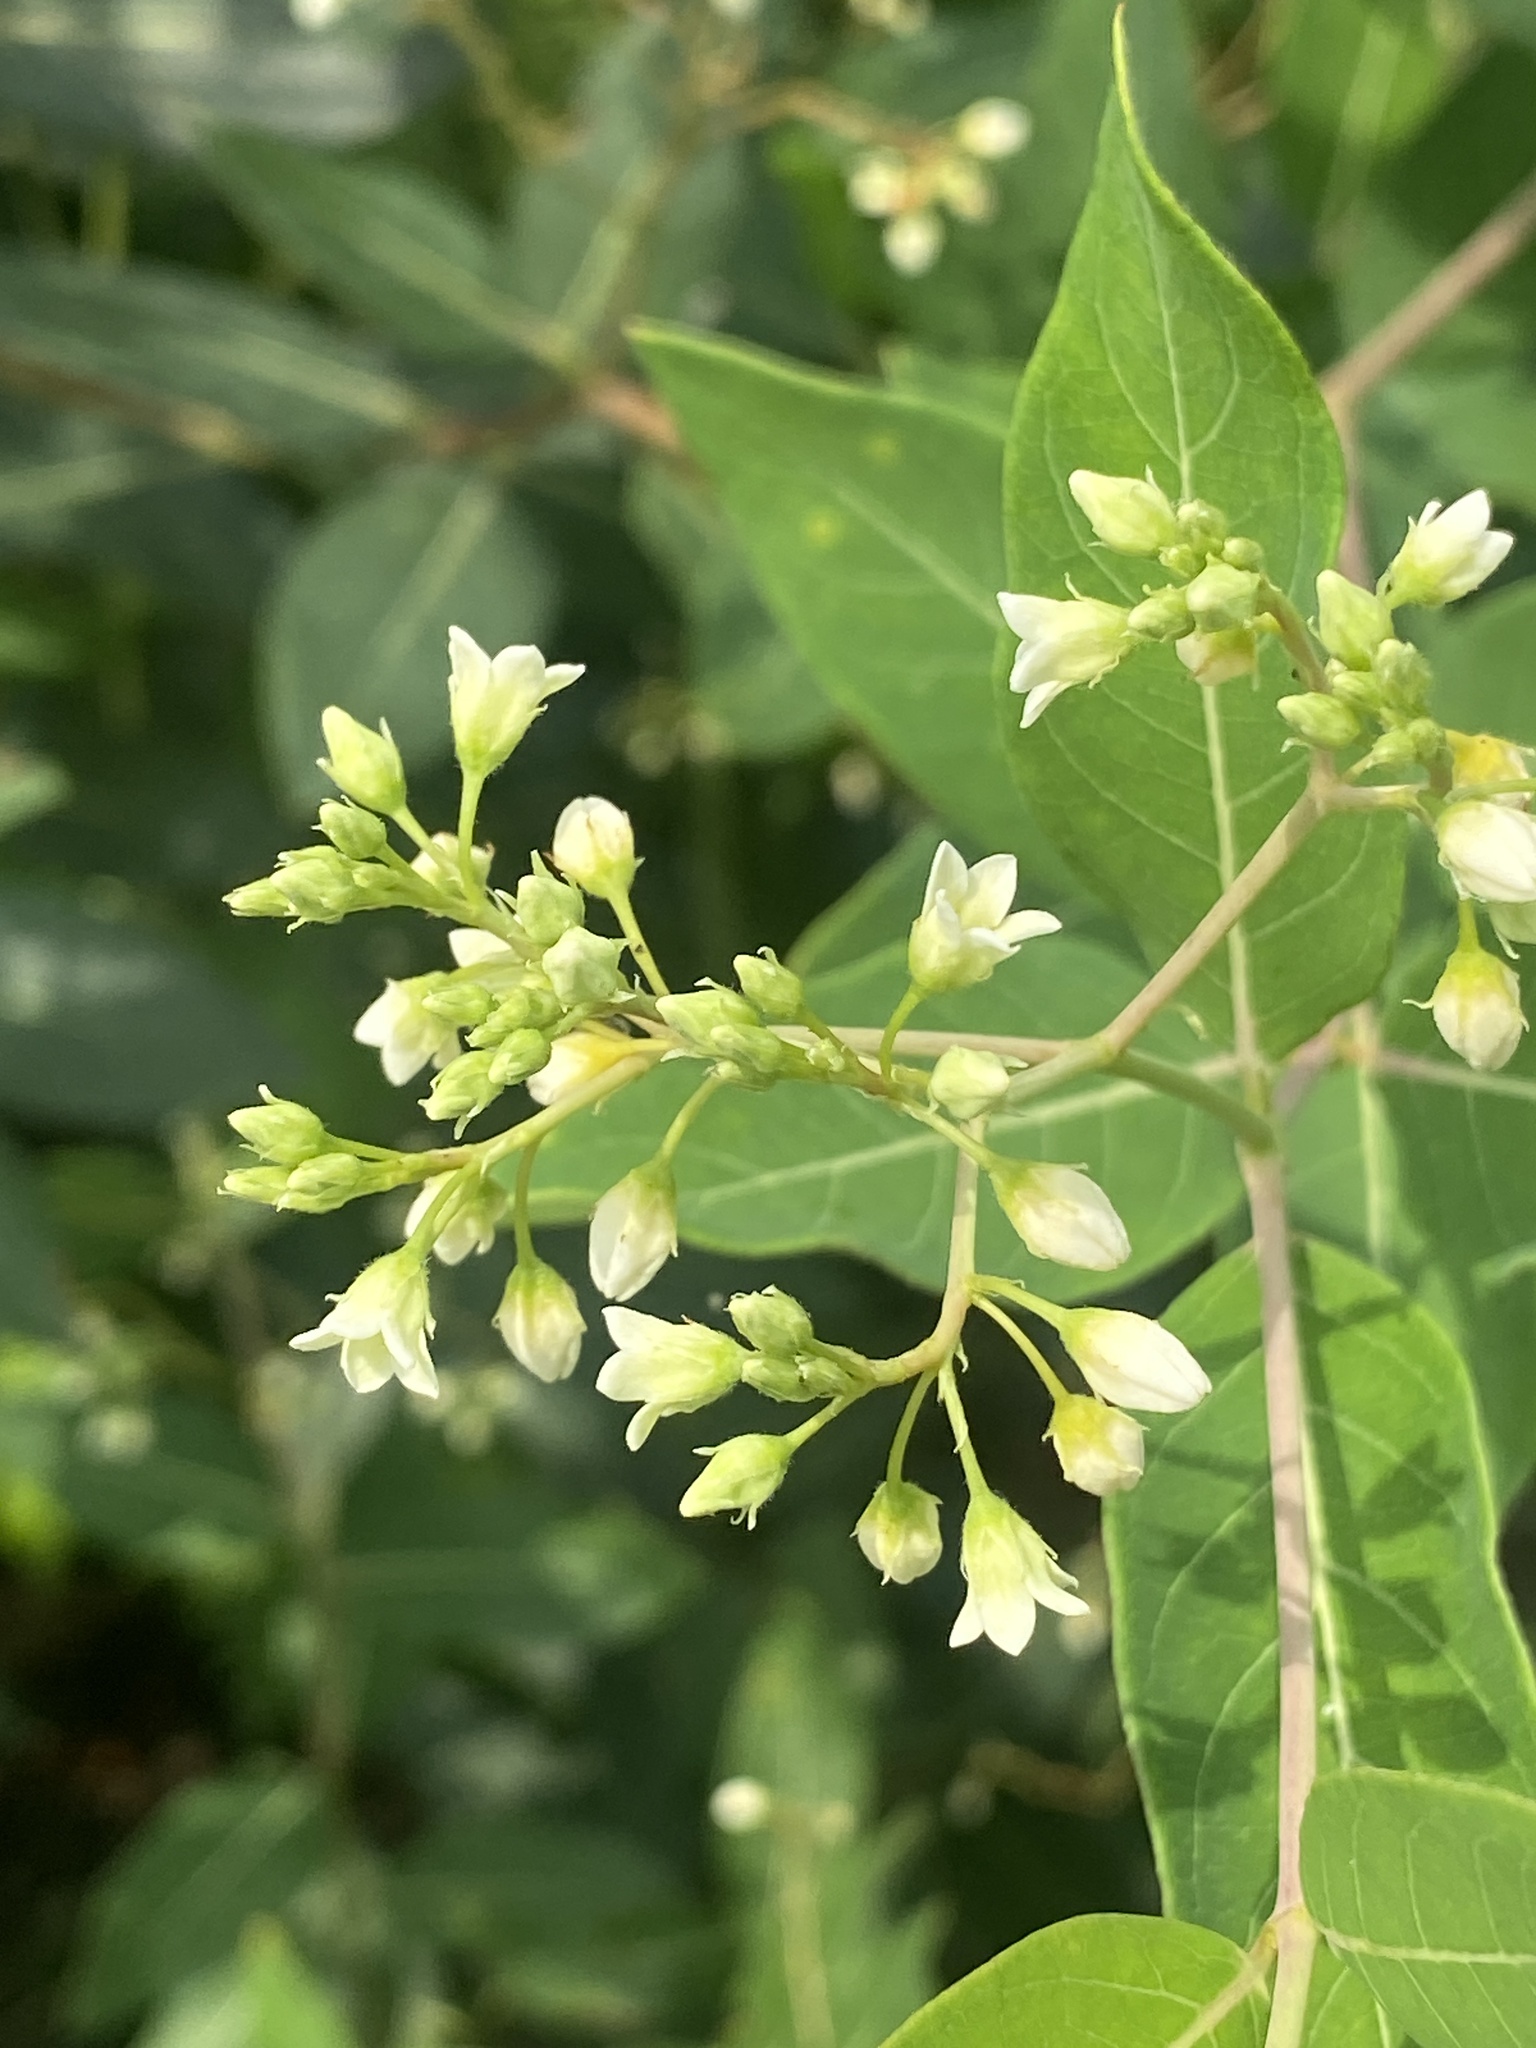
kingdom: Plantae
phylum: Tracheophyta
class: Magnoliopsida
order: Gentianales
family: Apocynaceae
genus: Apocynum
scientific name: Apocynum cannabinum
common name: Hemp dogbane
